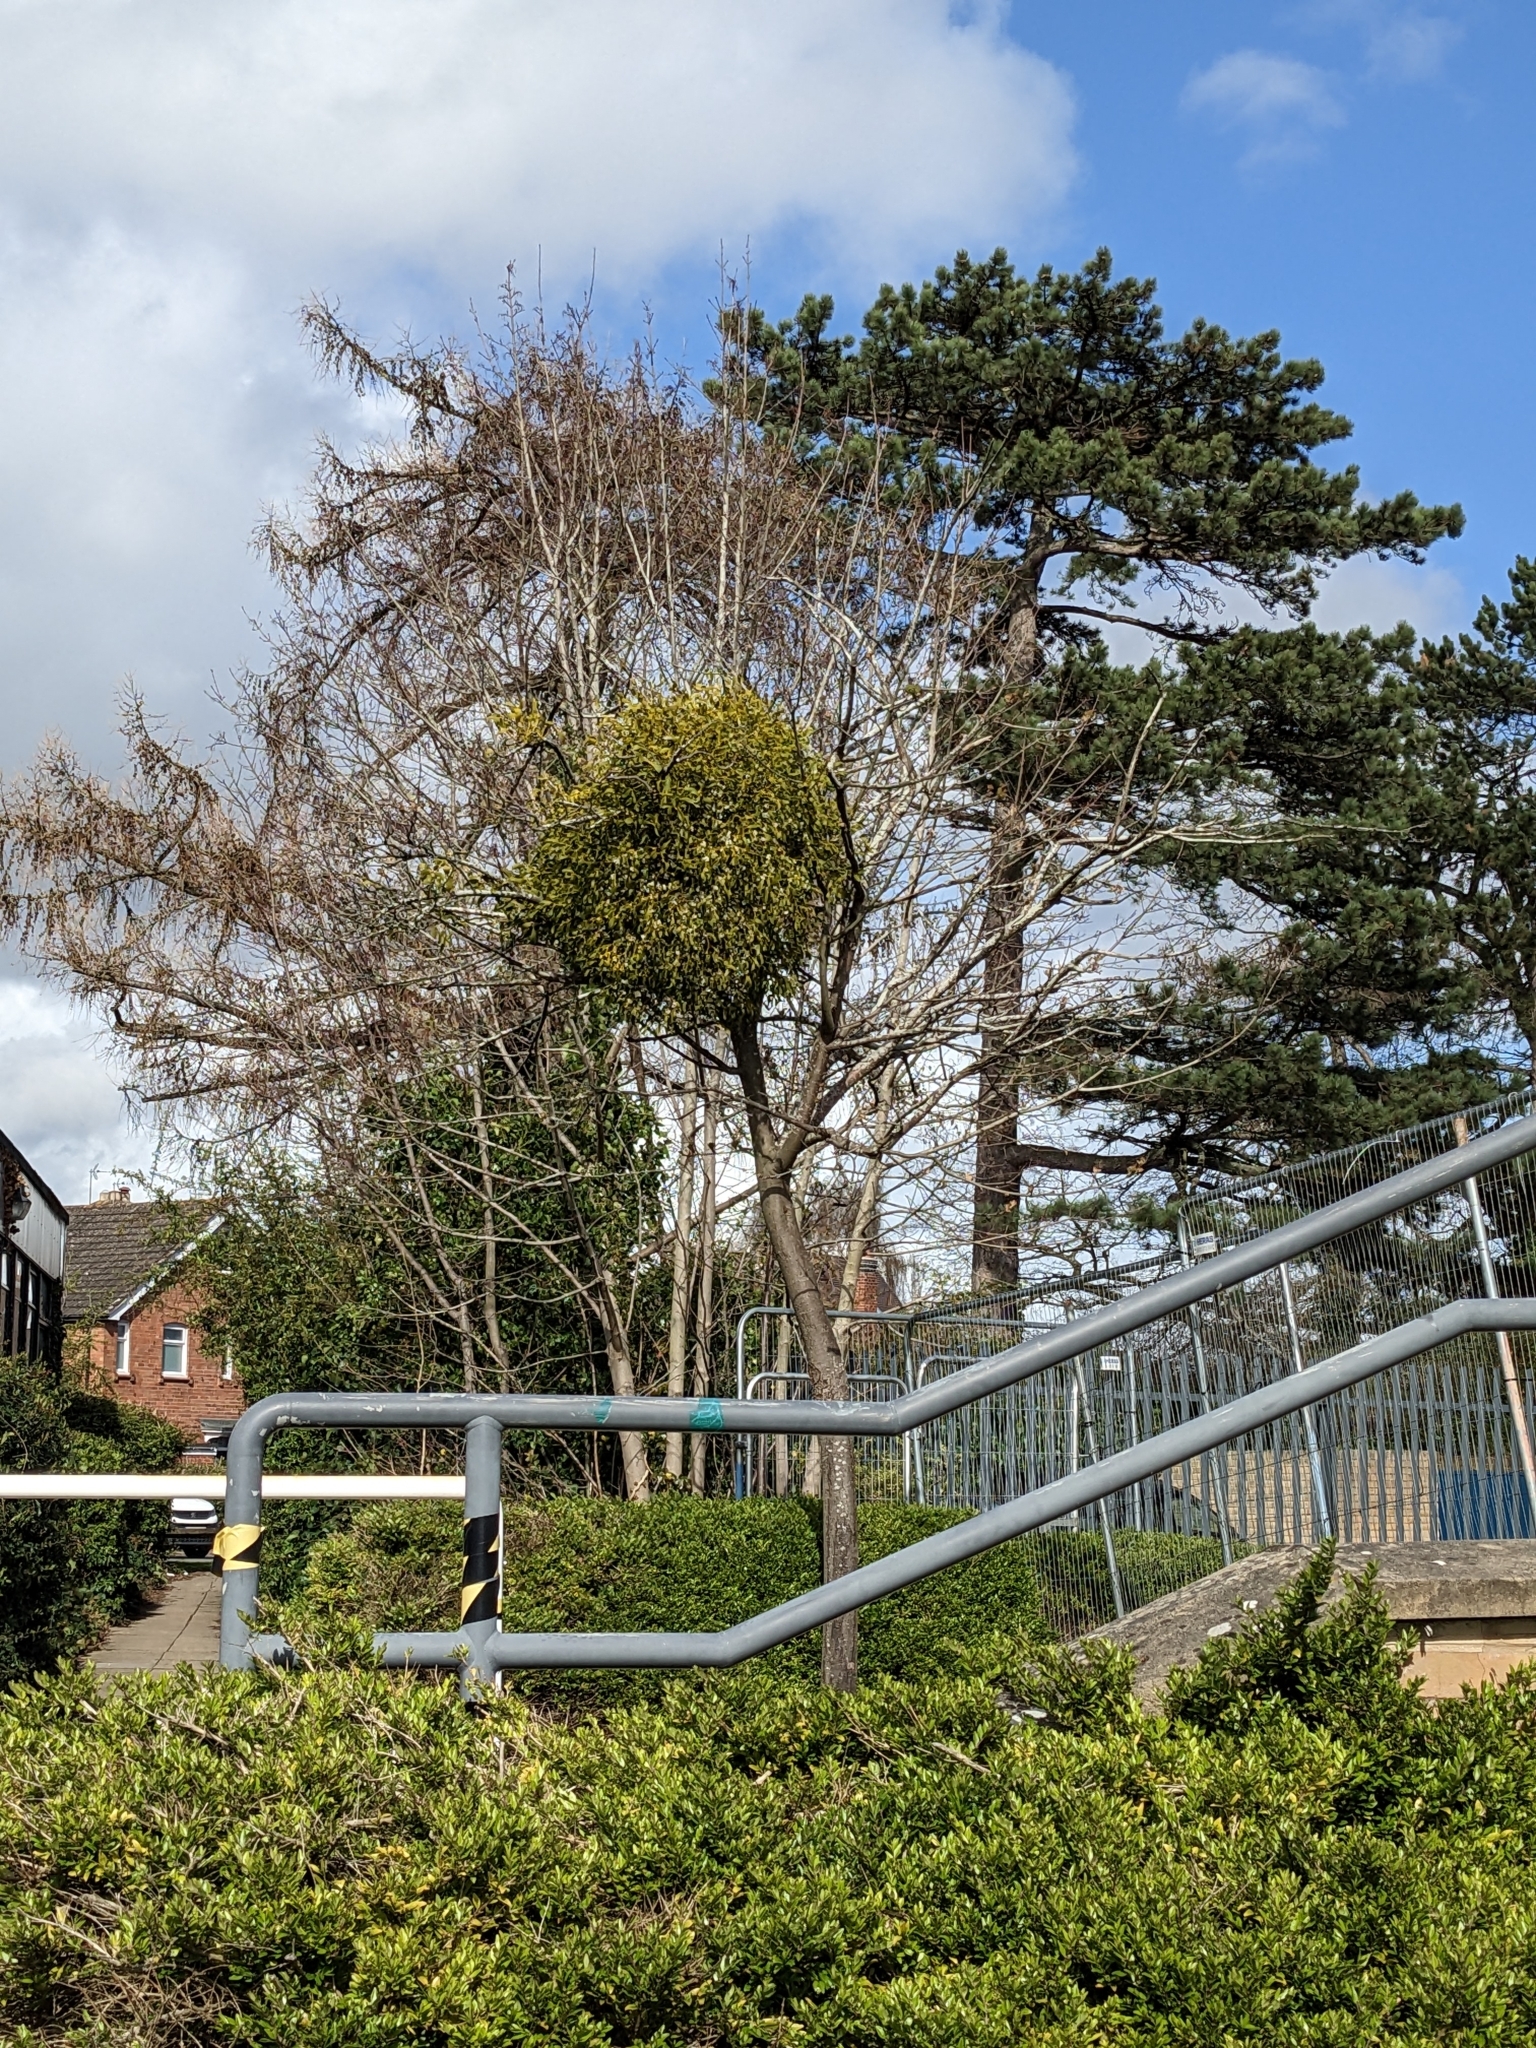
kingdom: Plantae
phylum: Tracheophyta
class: Magnoliopsida
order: Santalales
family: Viscaceae
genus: Viscum
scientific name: Viscum album
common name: Mistletoe
